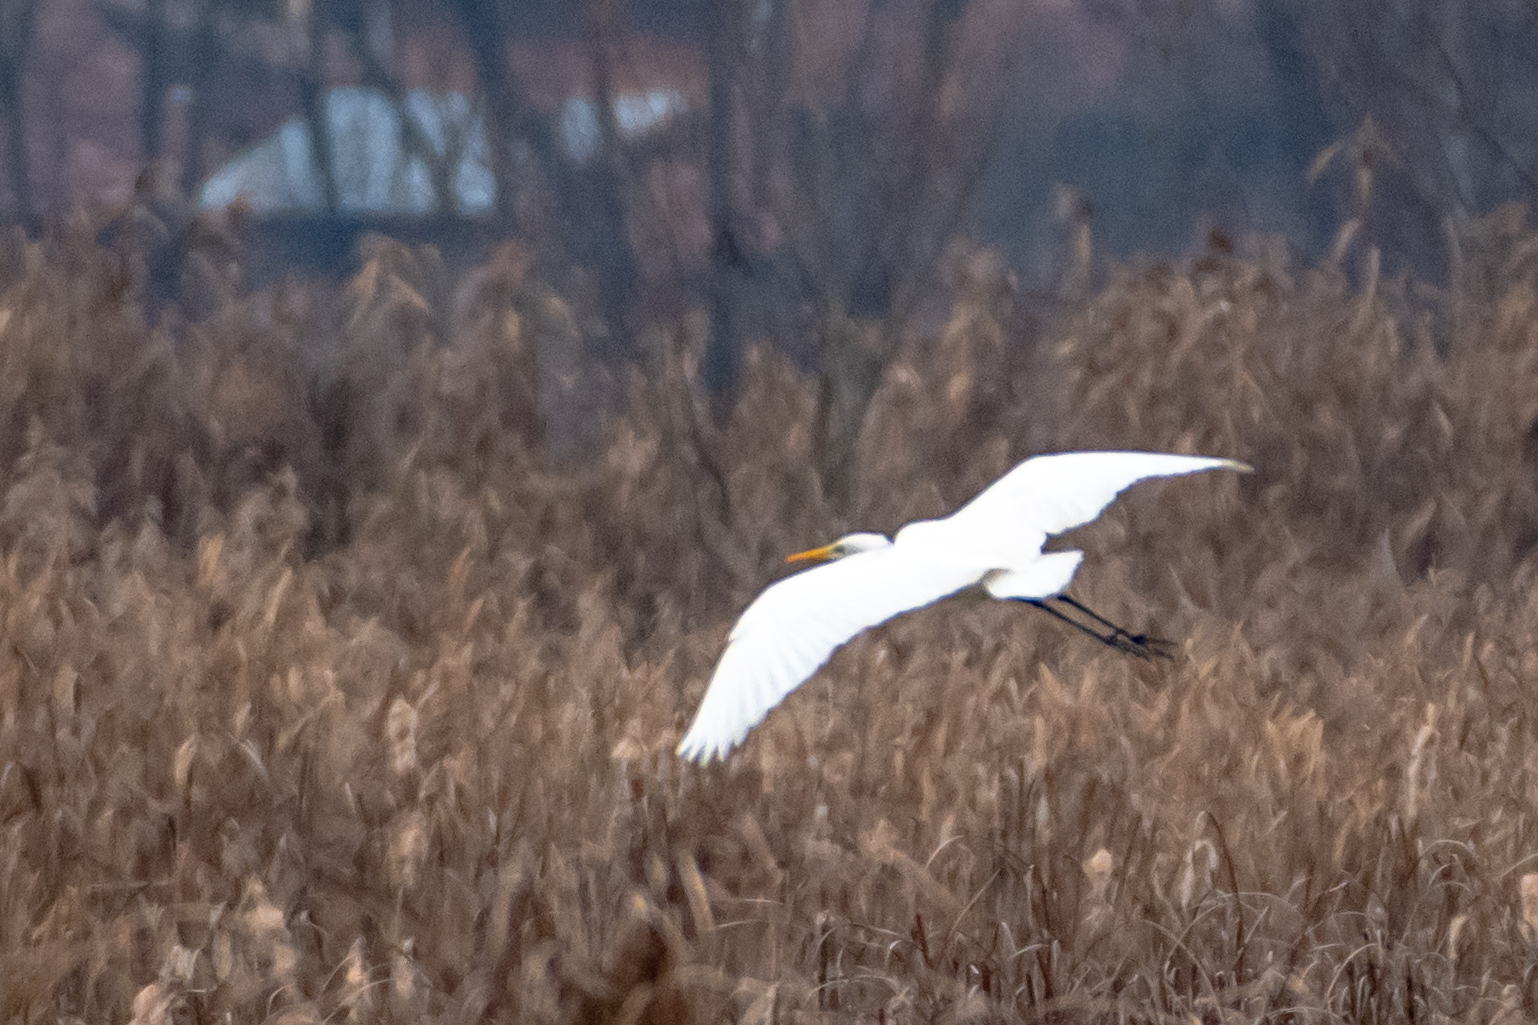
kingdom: Animalia
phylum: Chordata
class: Aves
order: Pelecaniformes
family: Ardeidae
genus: Ardea
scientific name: Ardea alba
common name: Great egret
